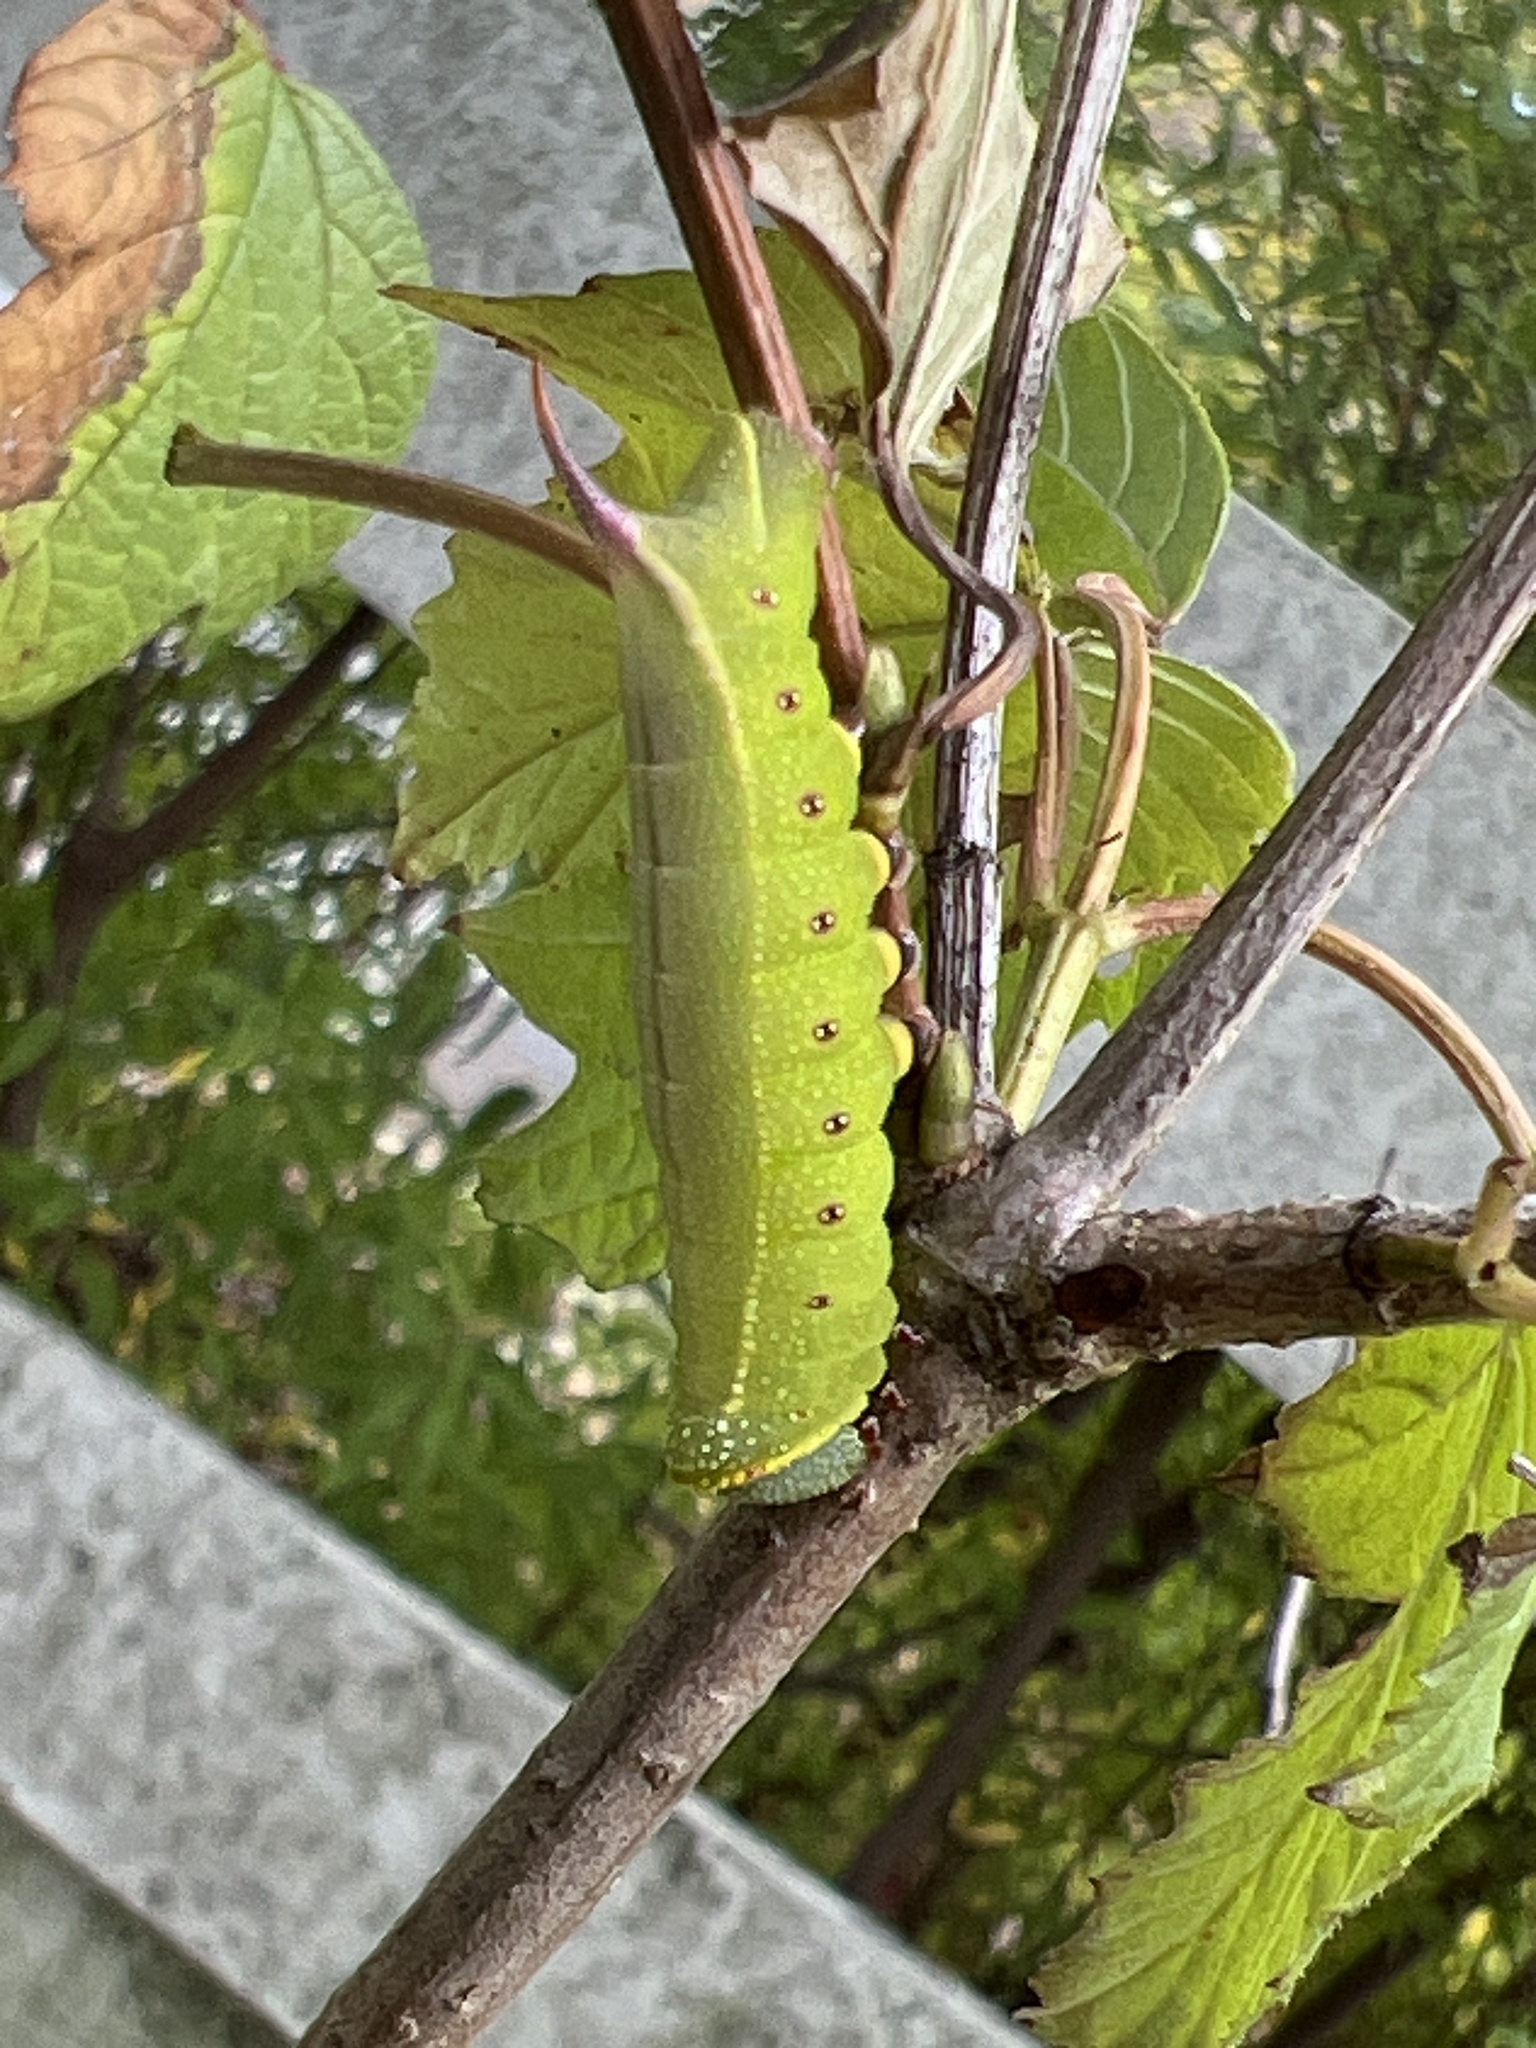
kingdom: Animalia
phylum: Arthropoda
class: Insecta
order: Lepidoptera
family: Sphingidae
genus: Hemaris
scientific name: Hemaris thysbe
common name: Common clear-wing
